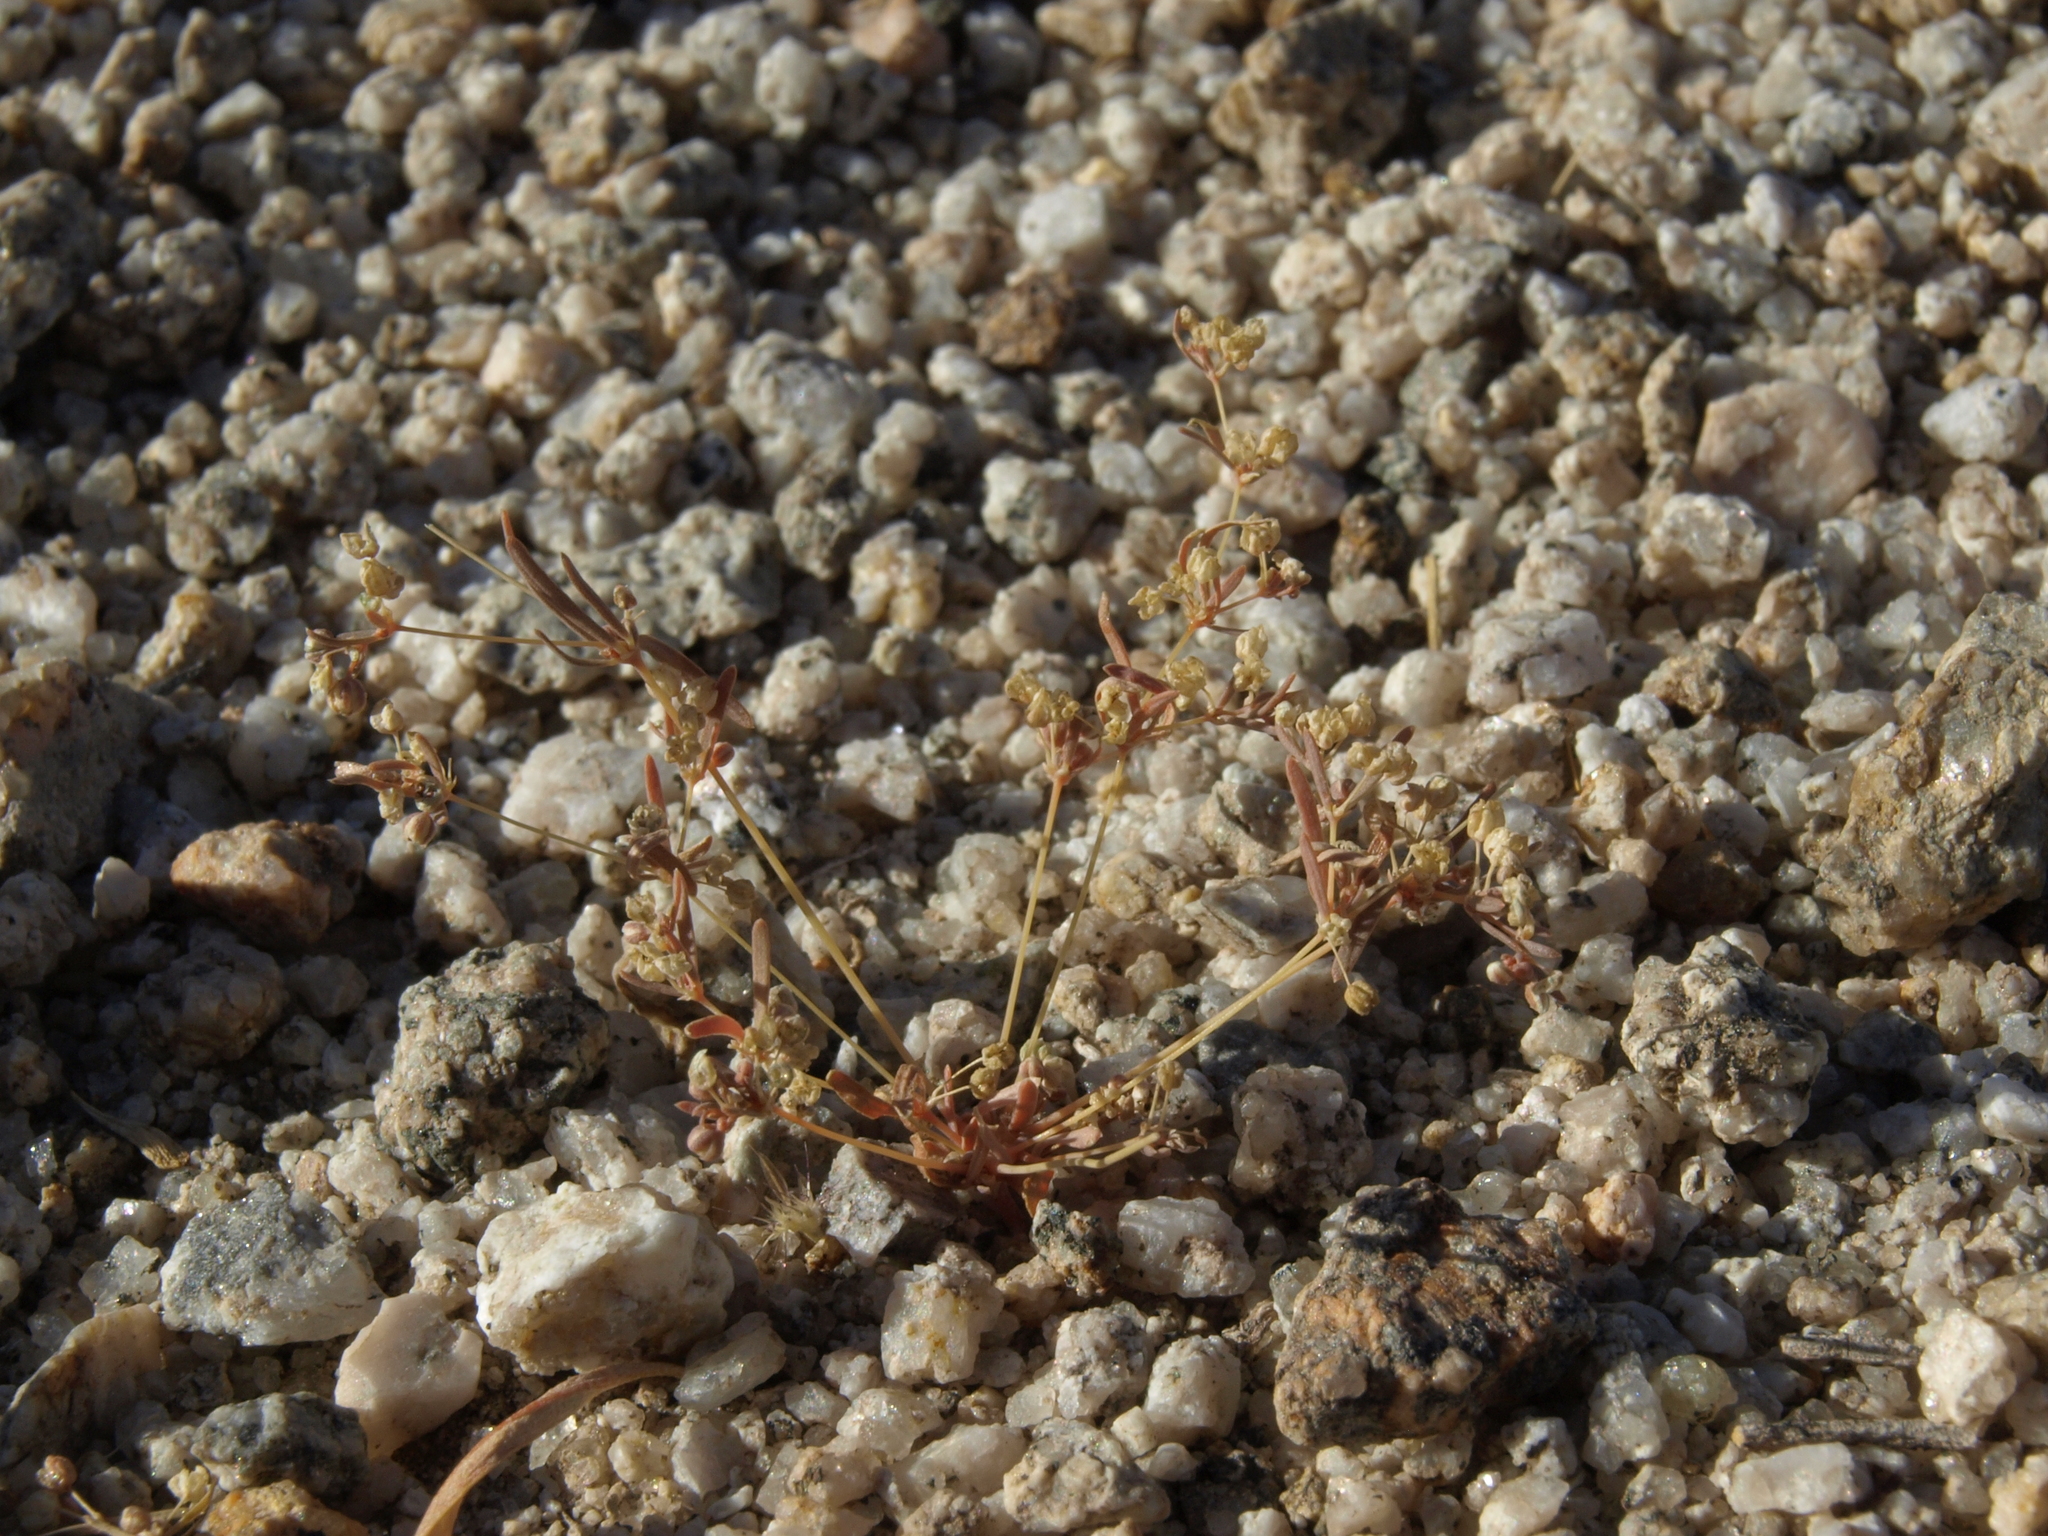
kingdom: Plantae
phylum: Tracheophyta
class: Magnoliopsida
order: Caryophyllales
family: Molluginaceae
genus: Hypertelis
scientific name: Hypertelis umbellata
